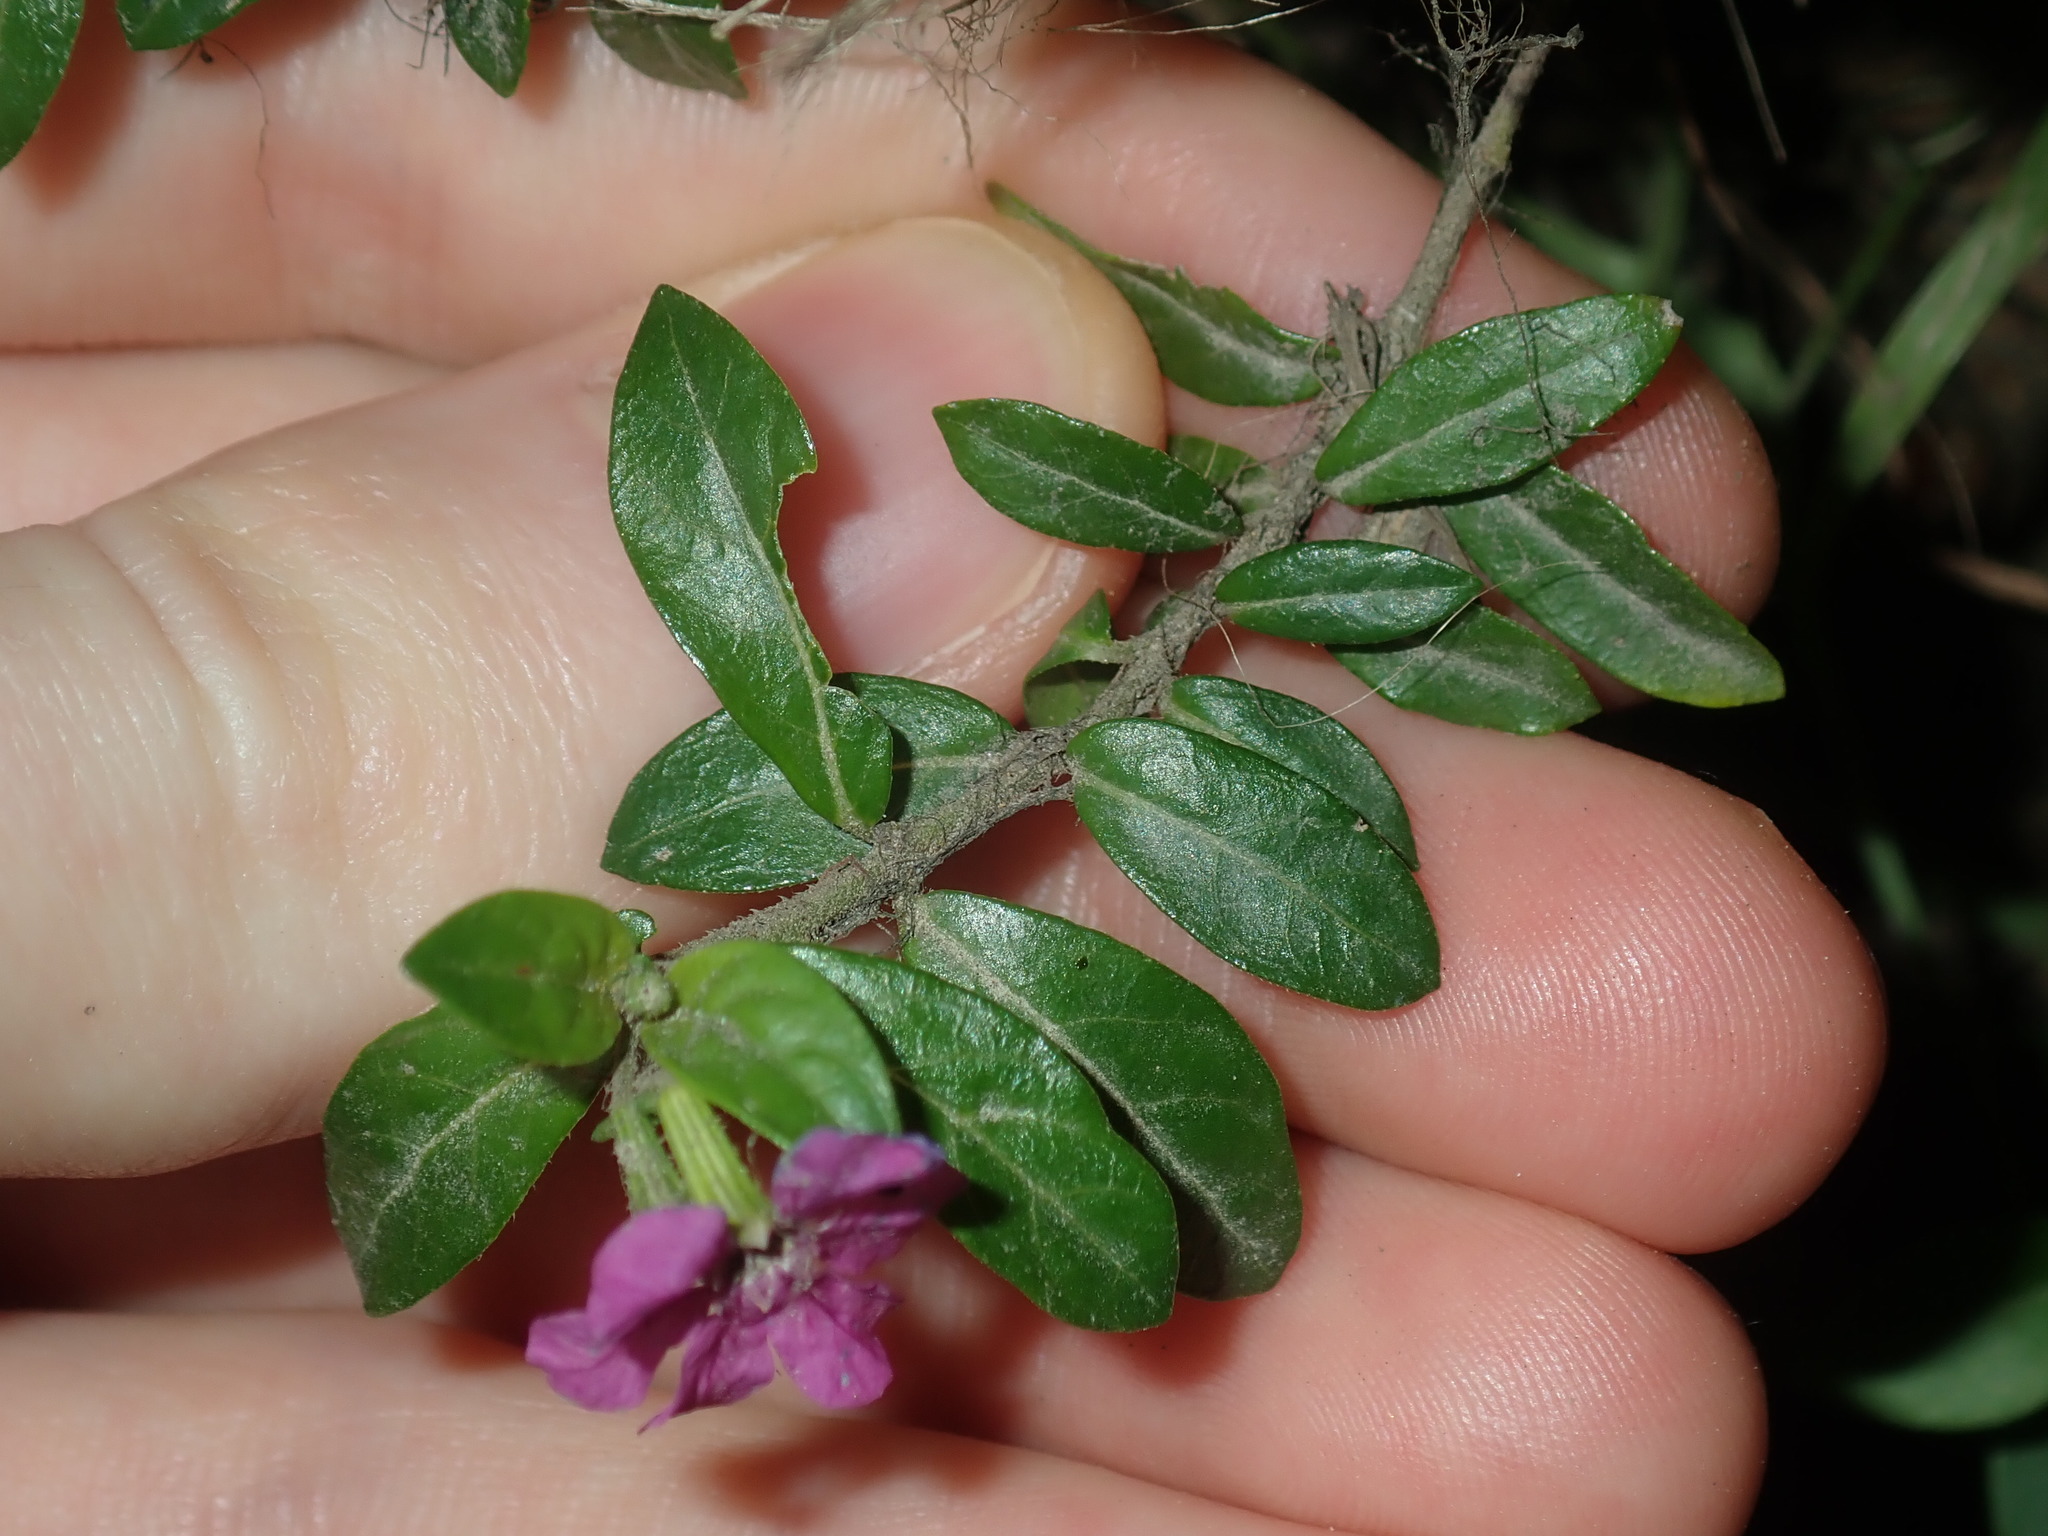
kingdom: Plantae
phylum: Tracheophyta
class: Magnoliopsida
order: Myrtales
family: Lythraceae
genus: Cuphea
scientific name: Cuphea hyssopifolia
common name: False heather
